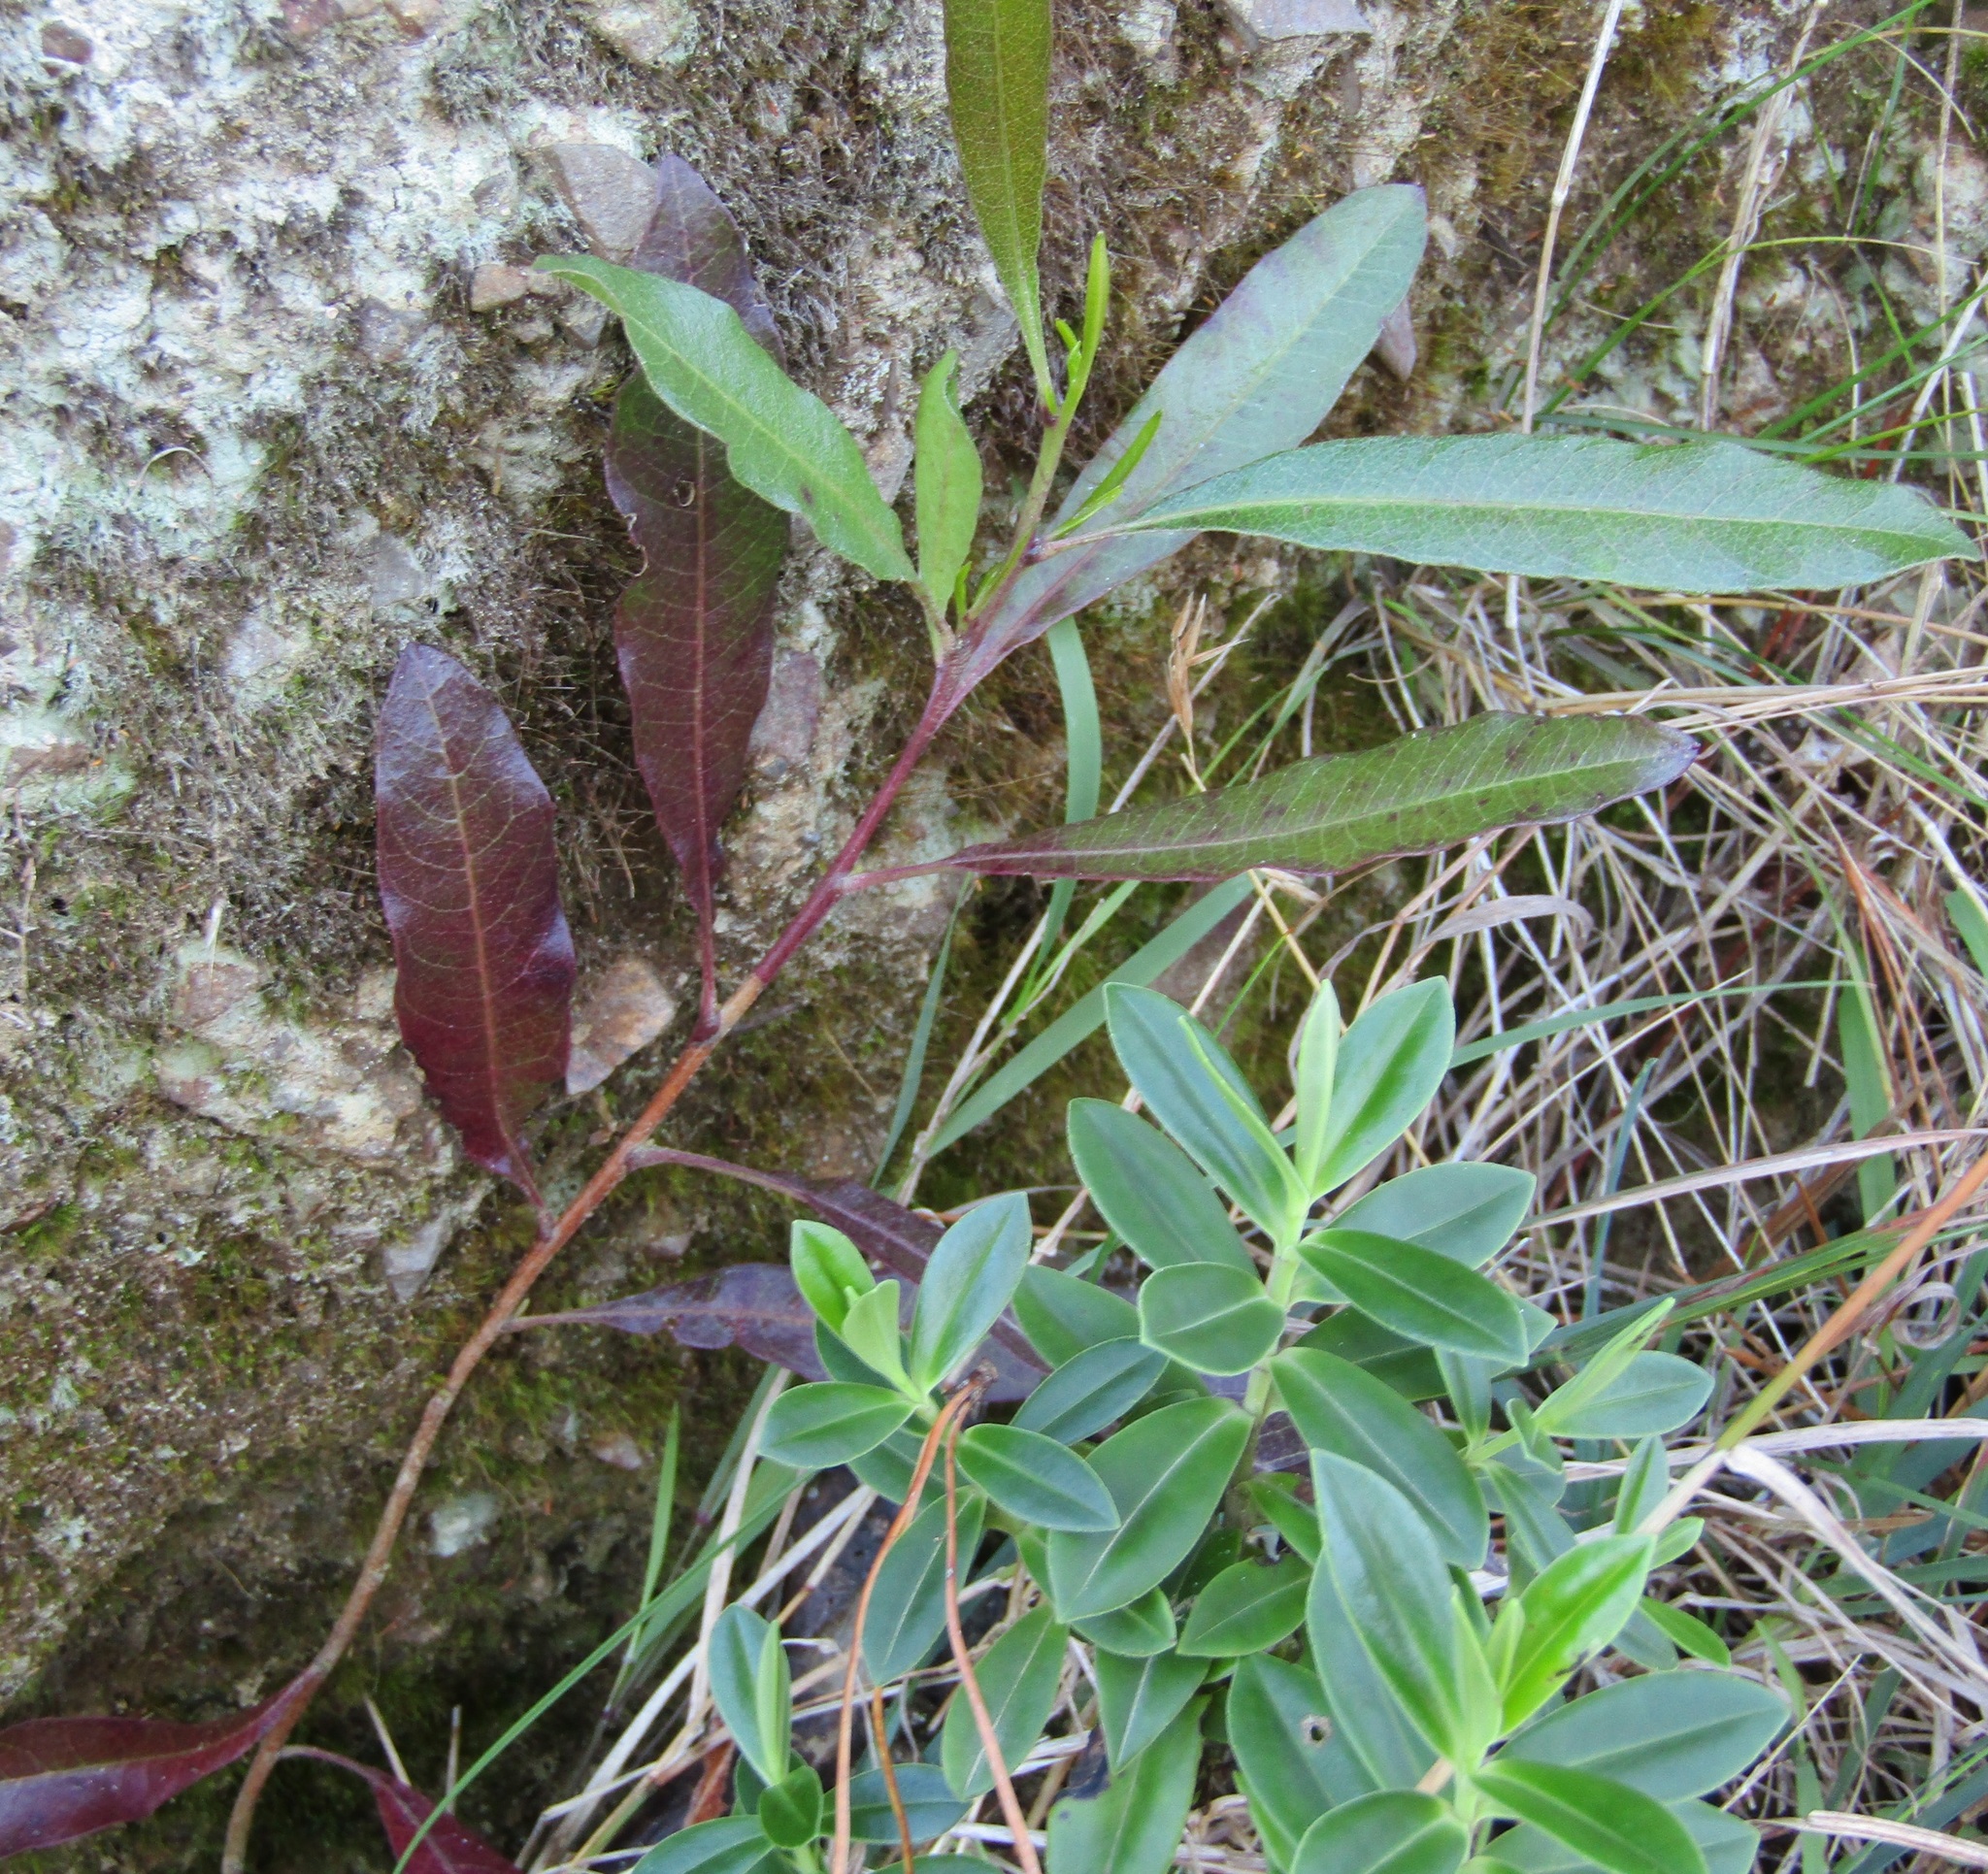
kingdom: Plantae
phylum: Tracheophyta
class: Magnoliopsida
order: Sapindales
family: Sapindaceae
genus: Dodonaea
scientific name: Dodonaea viscosa
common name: Hopbush
